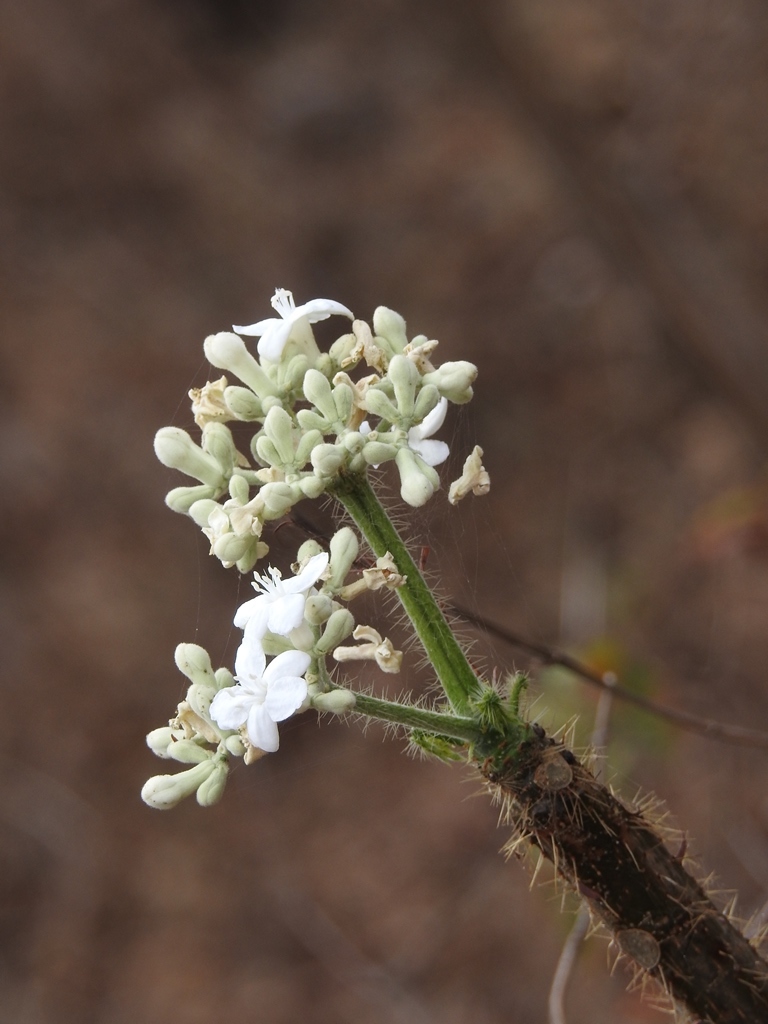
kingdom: Plantae
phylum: Tracheophyta
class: Magnoliopsida
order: Malpighiales
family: Euphorbiaceae
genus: Cnidoscolus
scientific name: Cnidoscolus aconitifolius
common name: Cabbage-star
